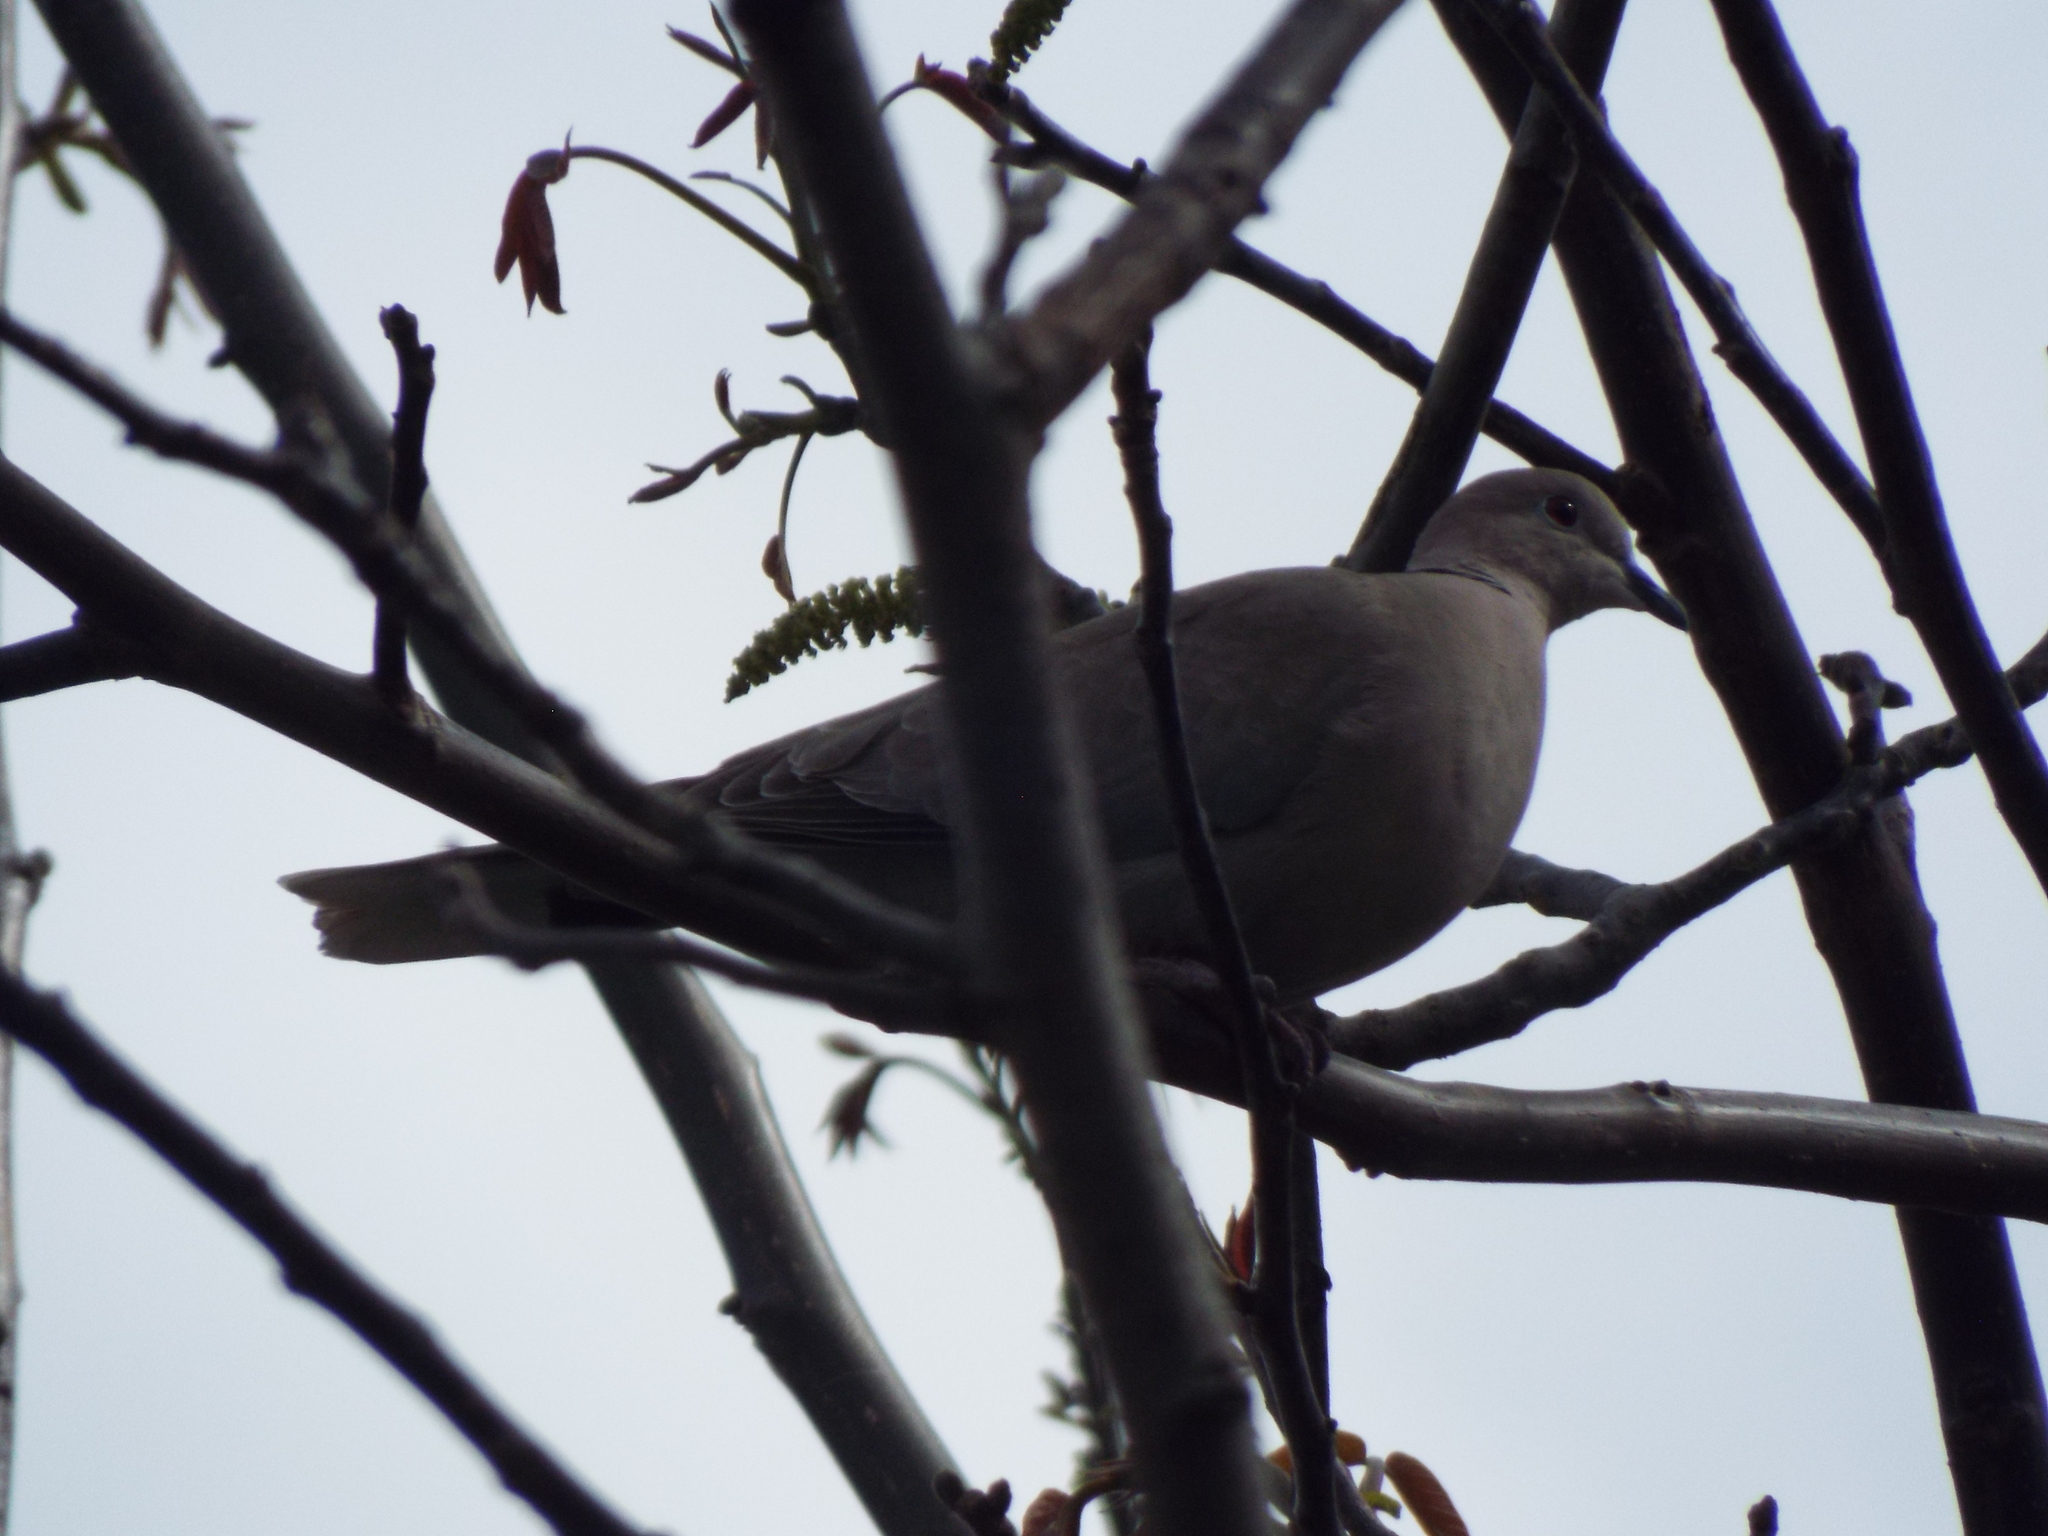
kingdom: Animalia
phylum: Chordata
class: Aves
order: Columbiformes
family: Columbidae
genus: Streptopelia
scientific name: Streptopelia decaocto
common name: Eurasian collared dove
